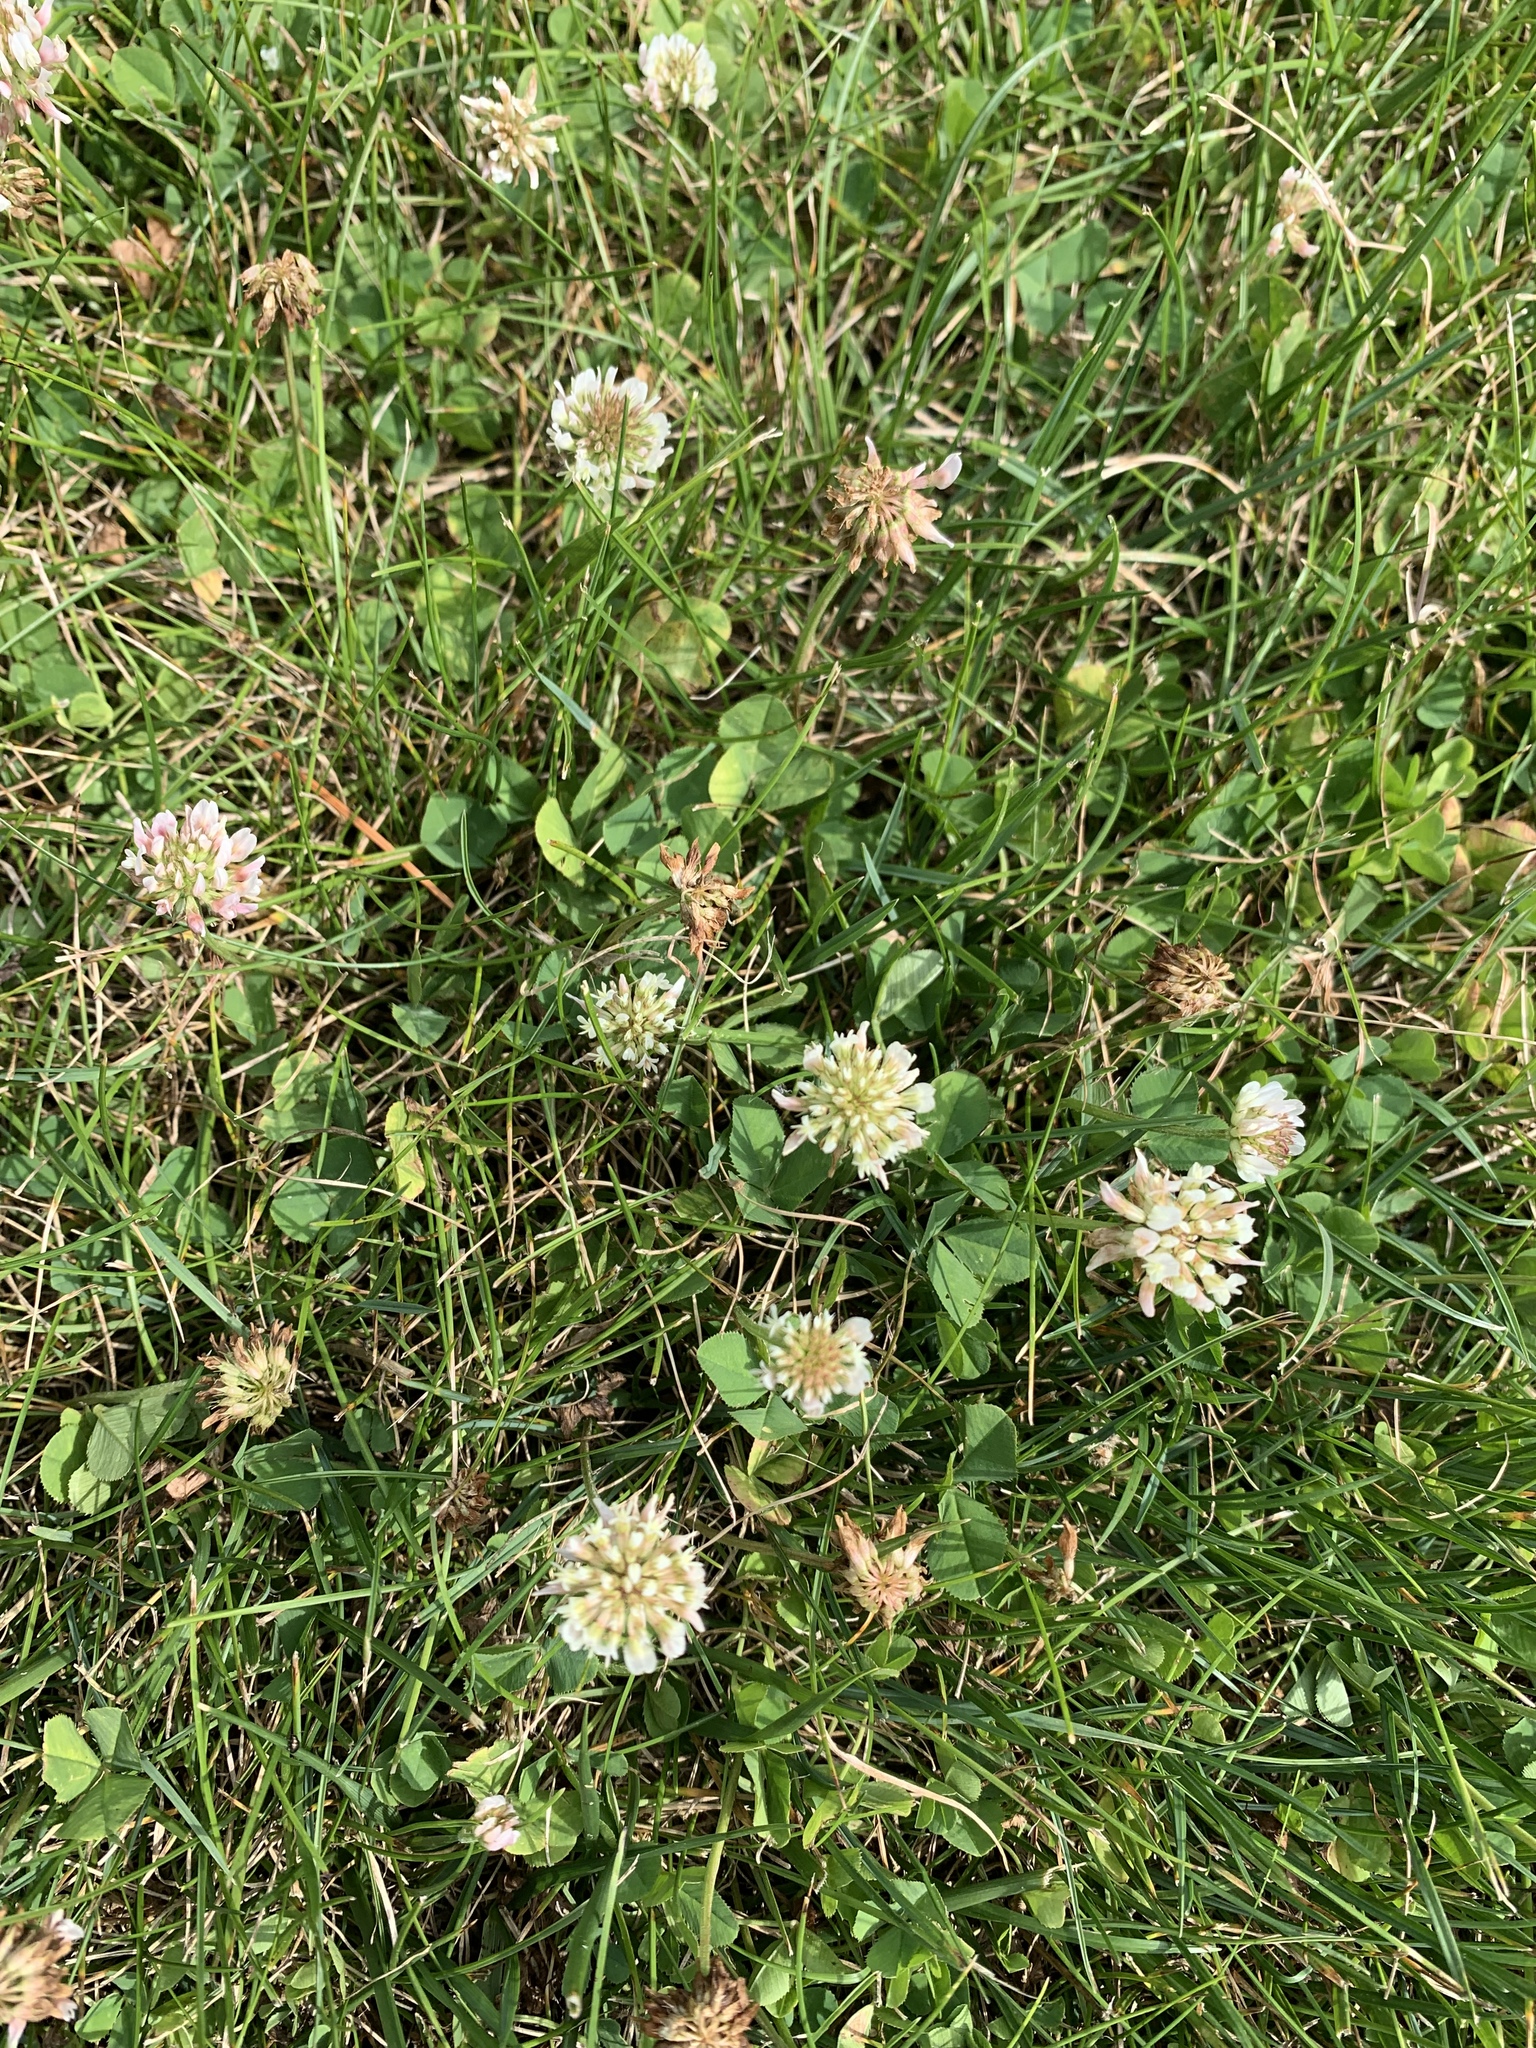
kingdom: Plantae
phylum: Tracheophyta
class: Magnoliopsida
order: Fabales
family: Fabaceae
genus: Trifolium
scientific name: Trifolium repens
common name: White clover
